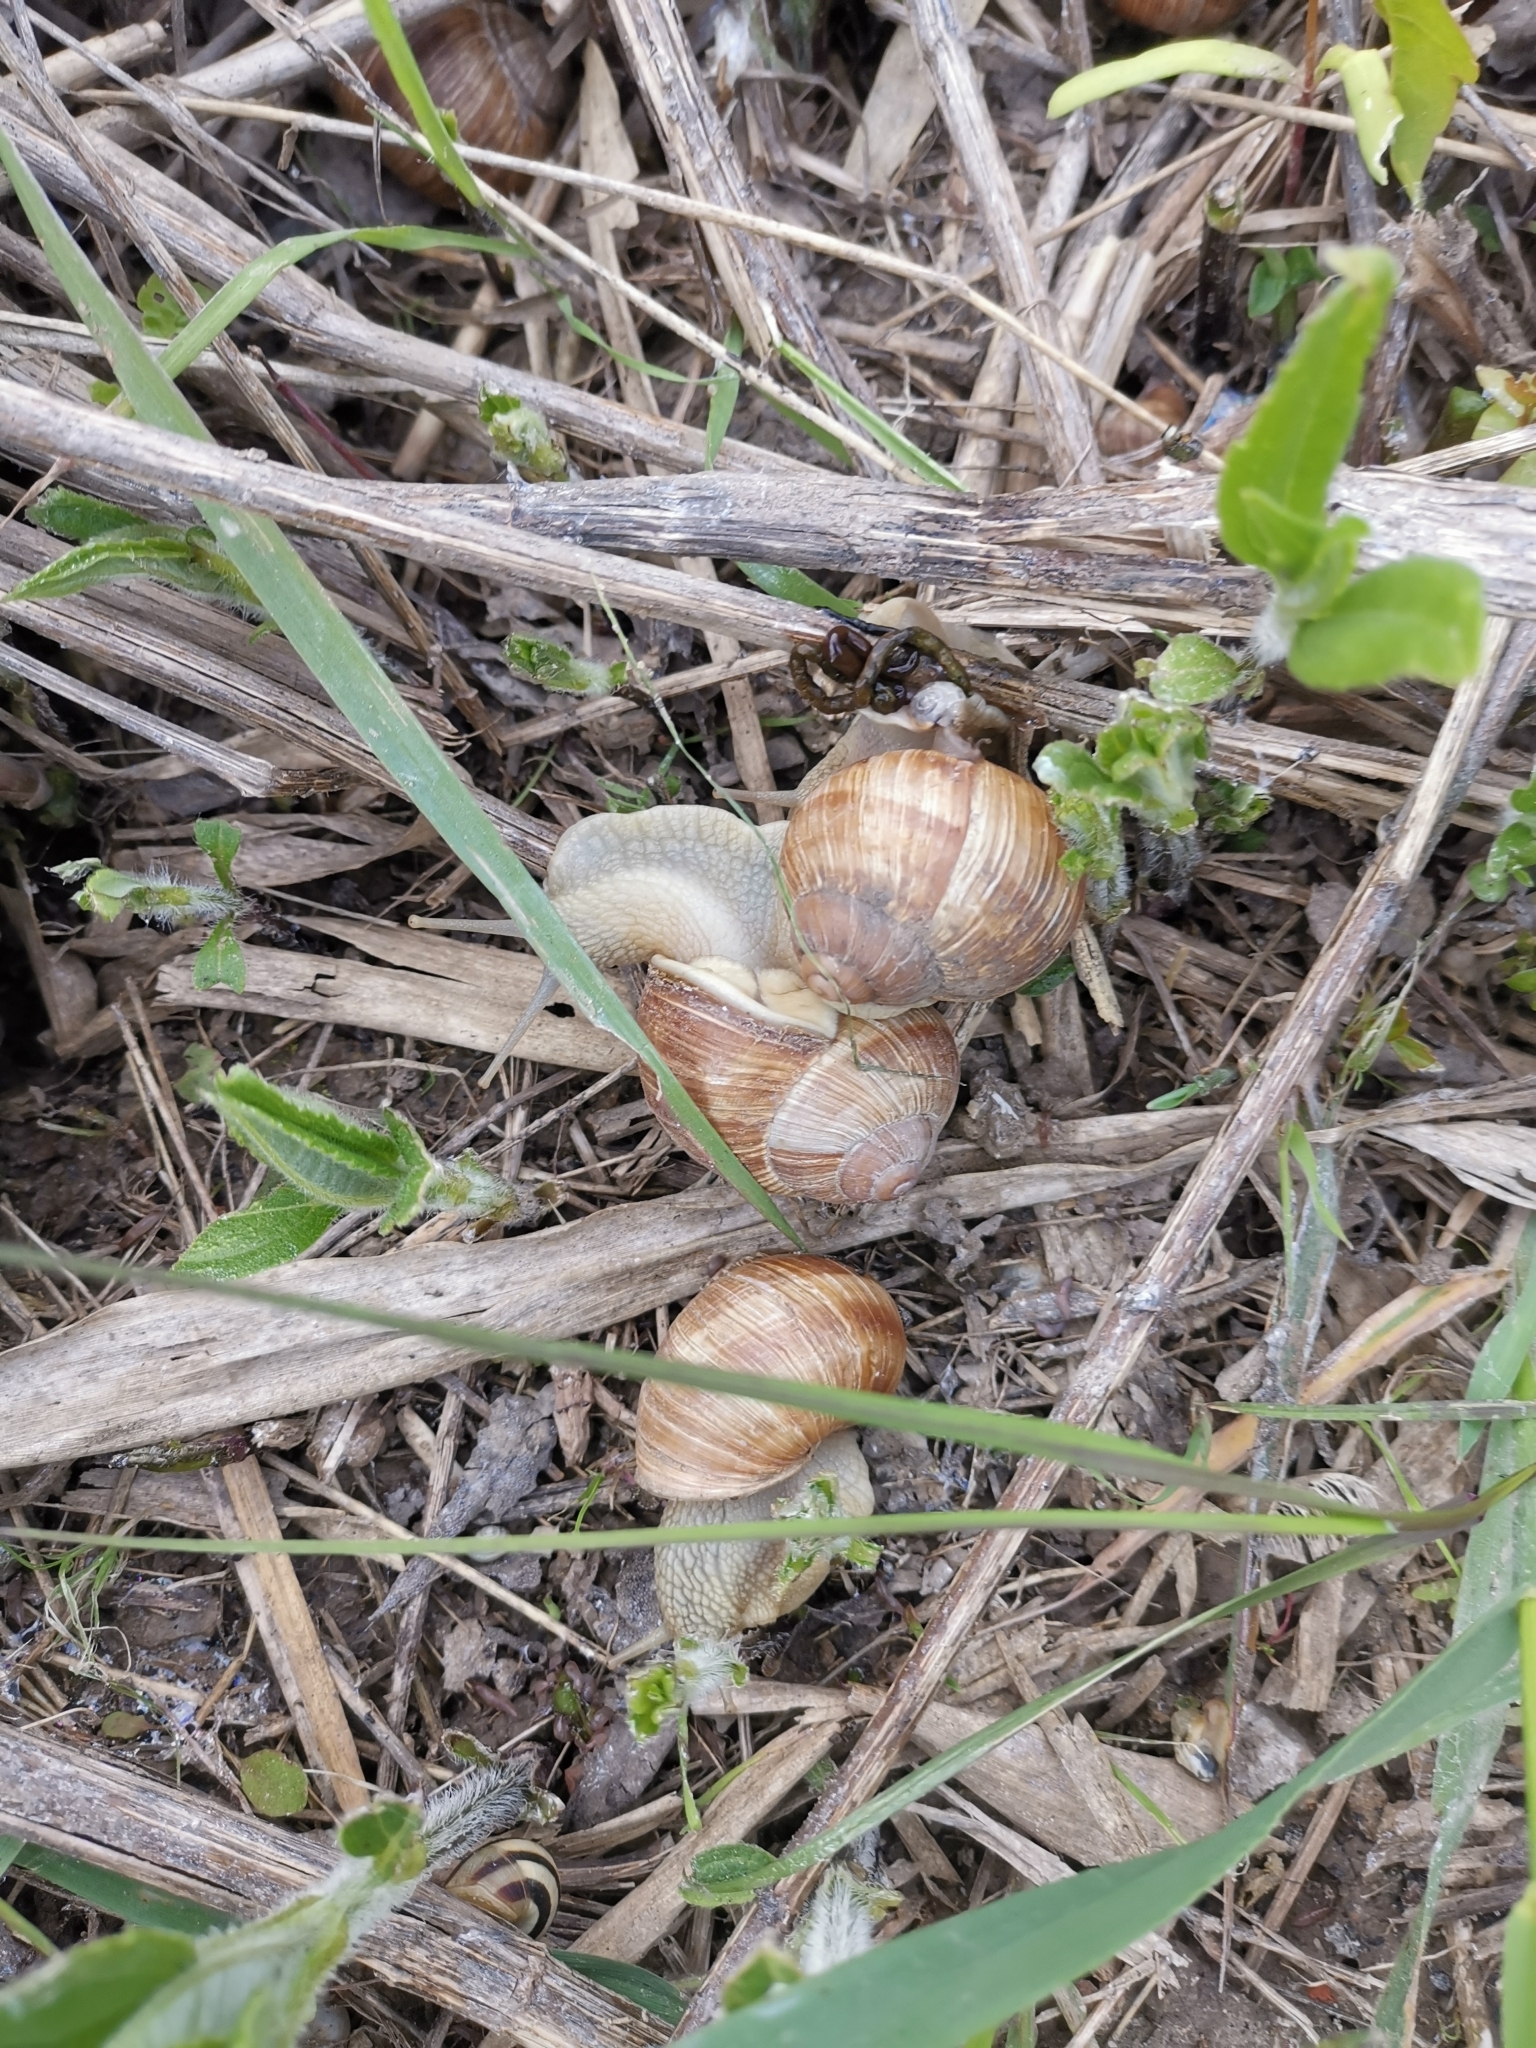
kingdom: Animalia
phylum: Mollusca
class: Gastropoda
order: Stylommatophora
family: Helicidae
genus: Helix
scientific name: Helix pomatia
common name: Roman snail
